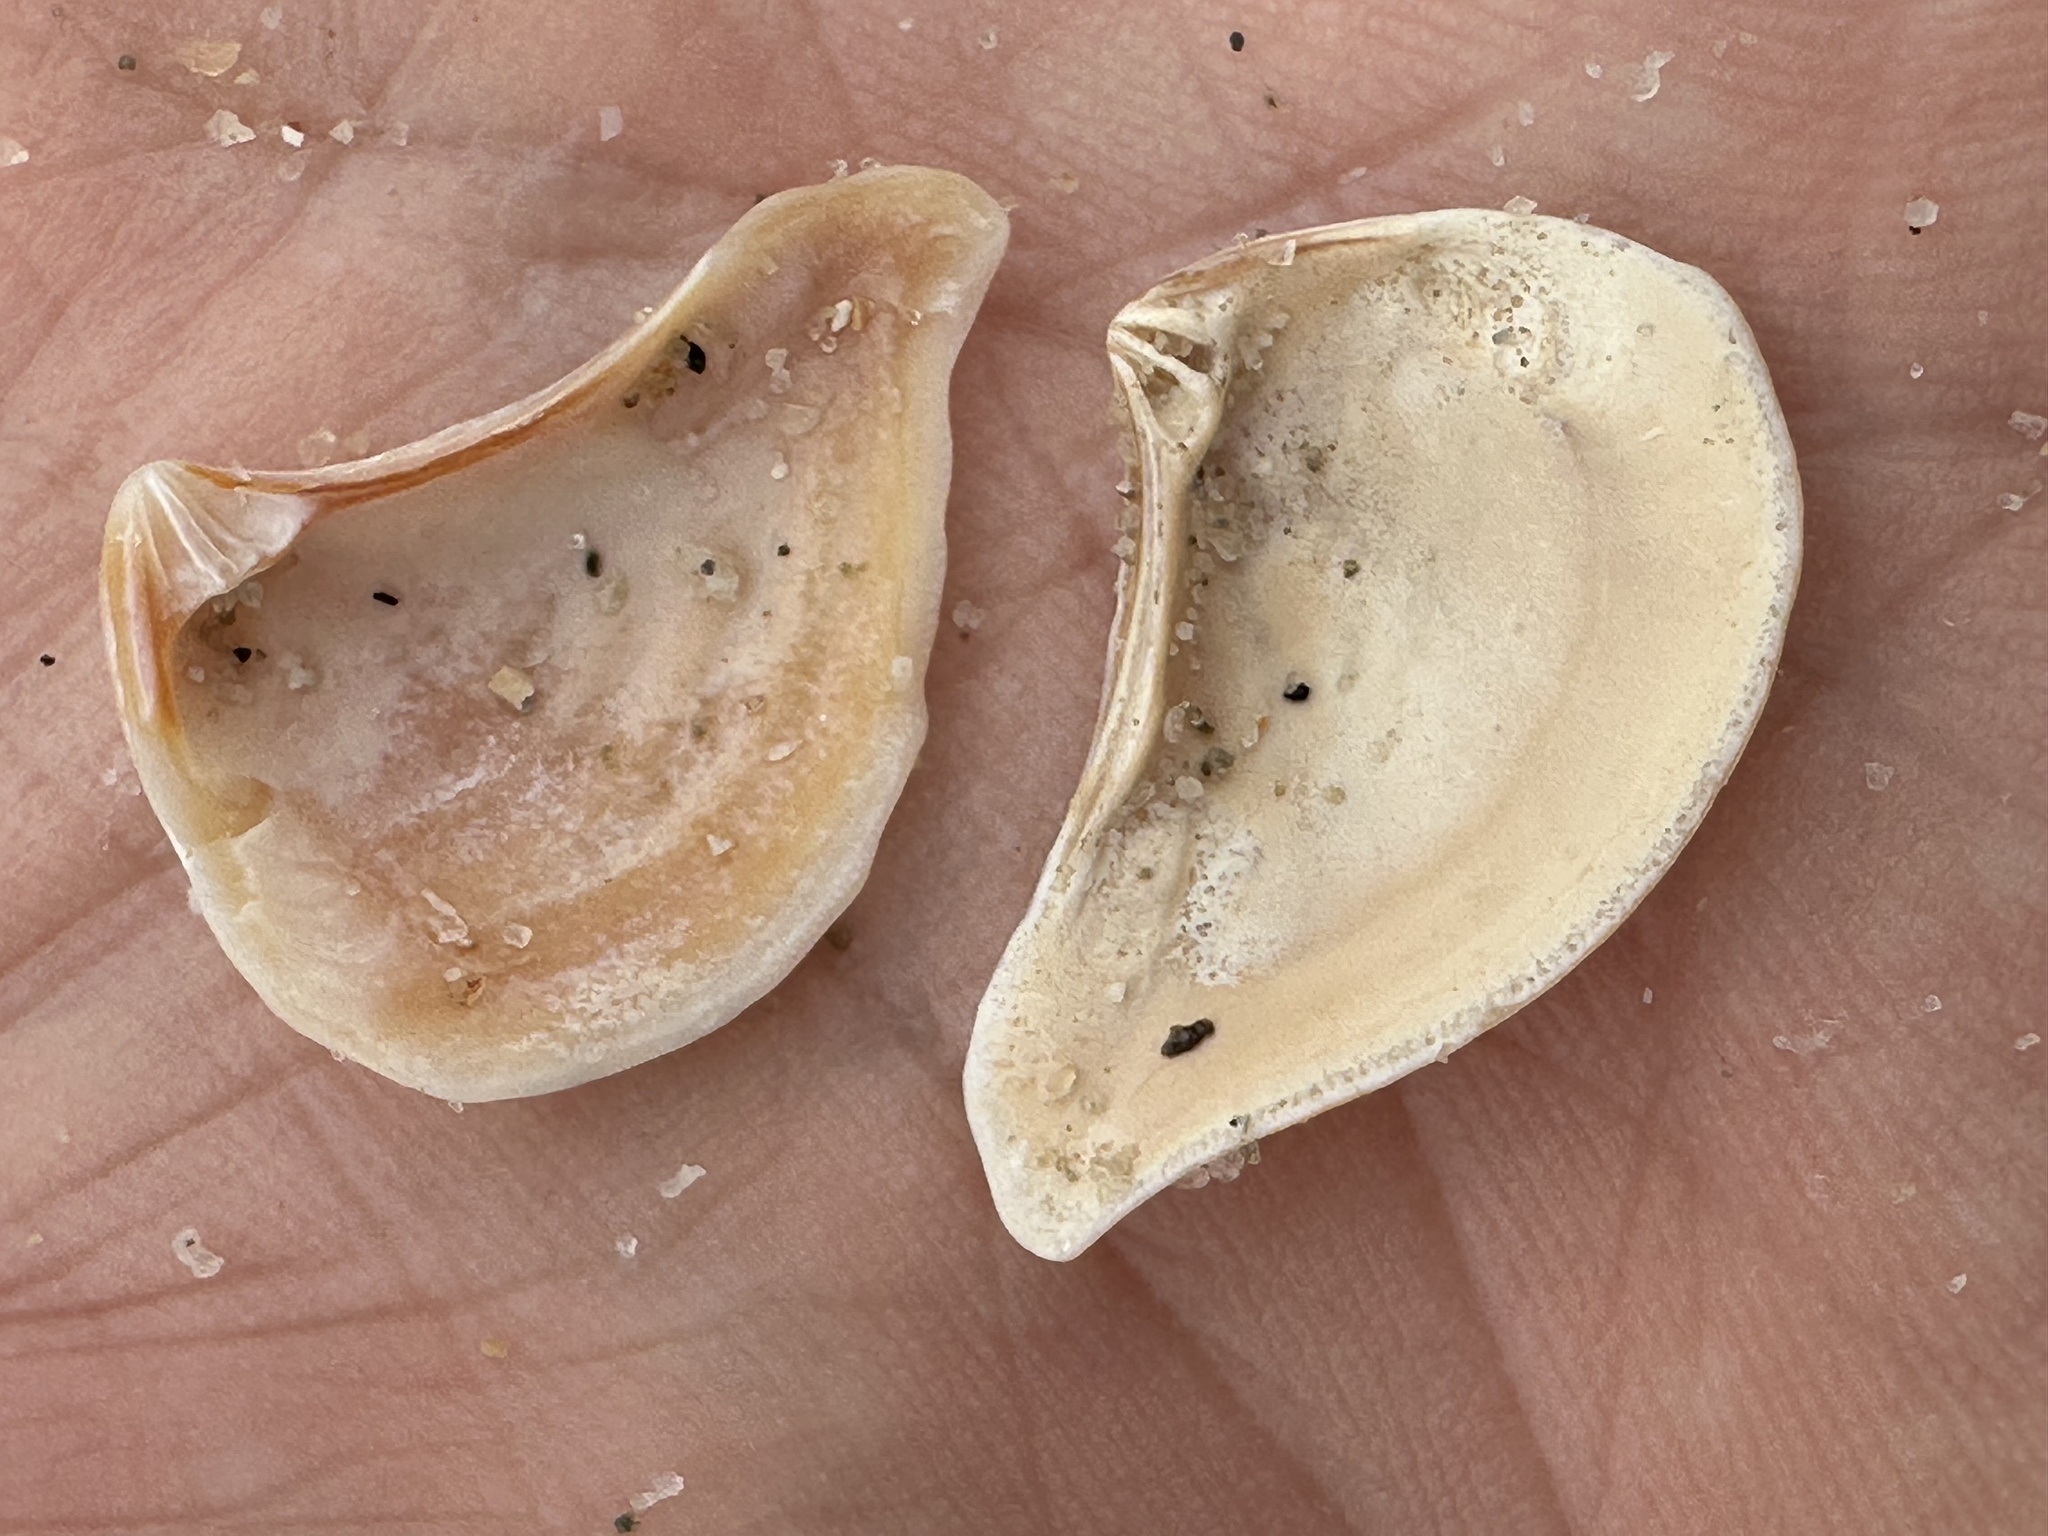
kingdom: Animalia
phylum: Mollusca
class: Bivalvia
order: Carditida
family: Crassatellidae
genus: Bathytormus
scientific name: Bathytormus radiatus
